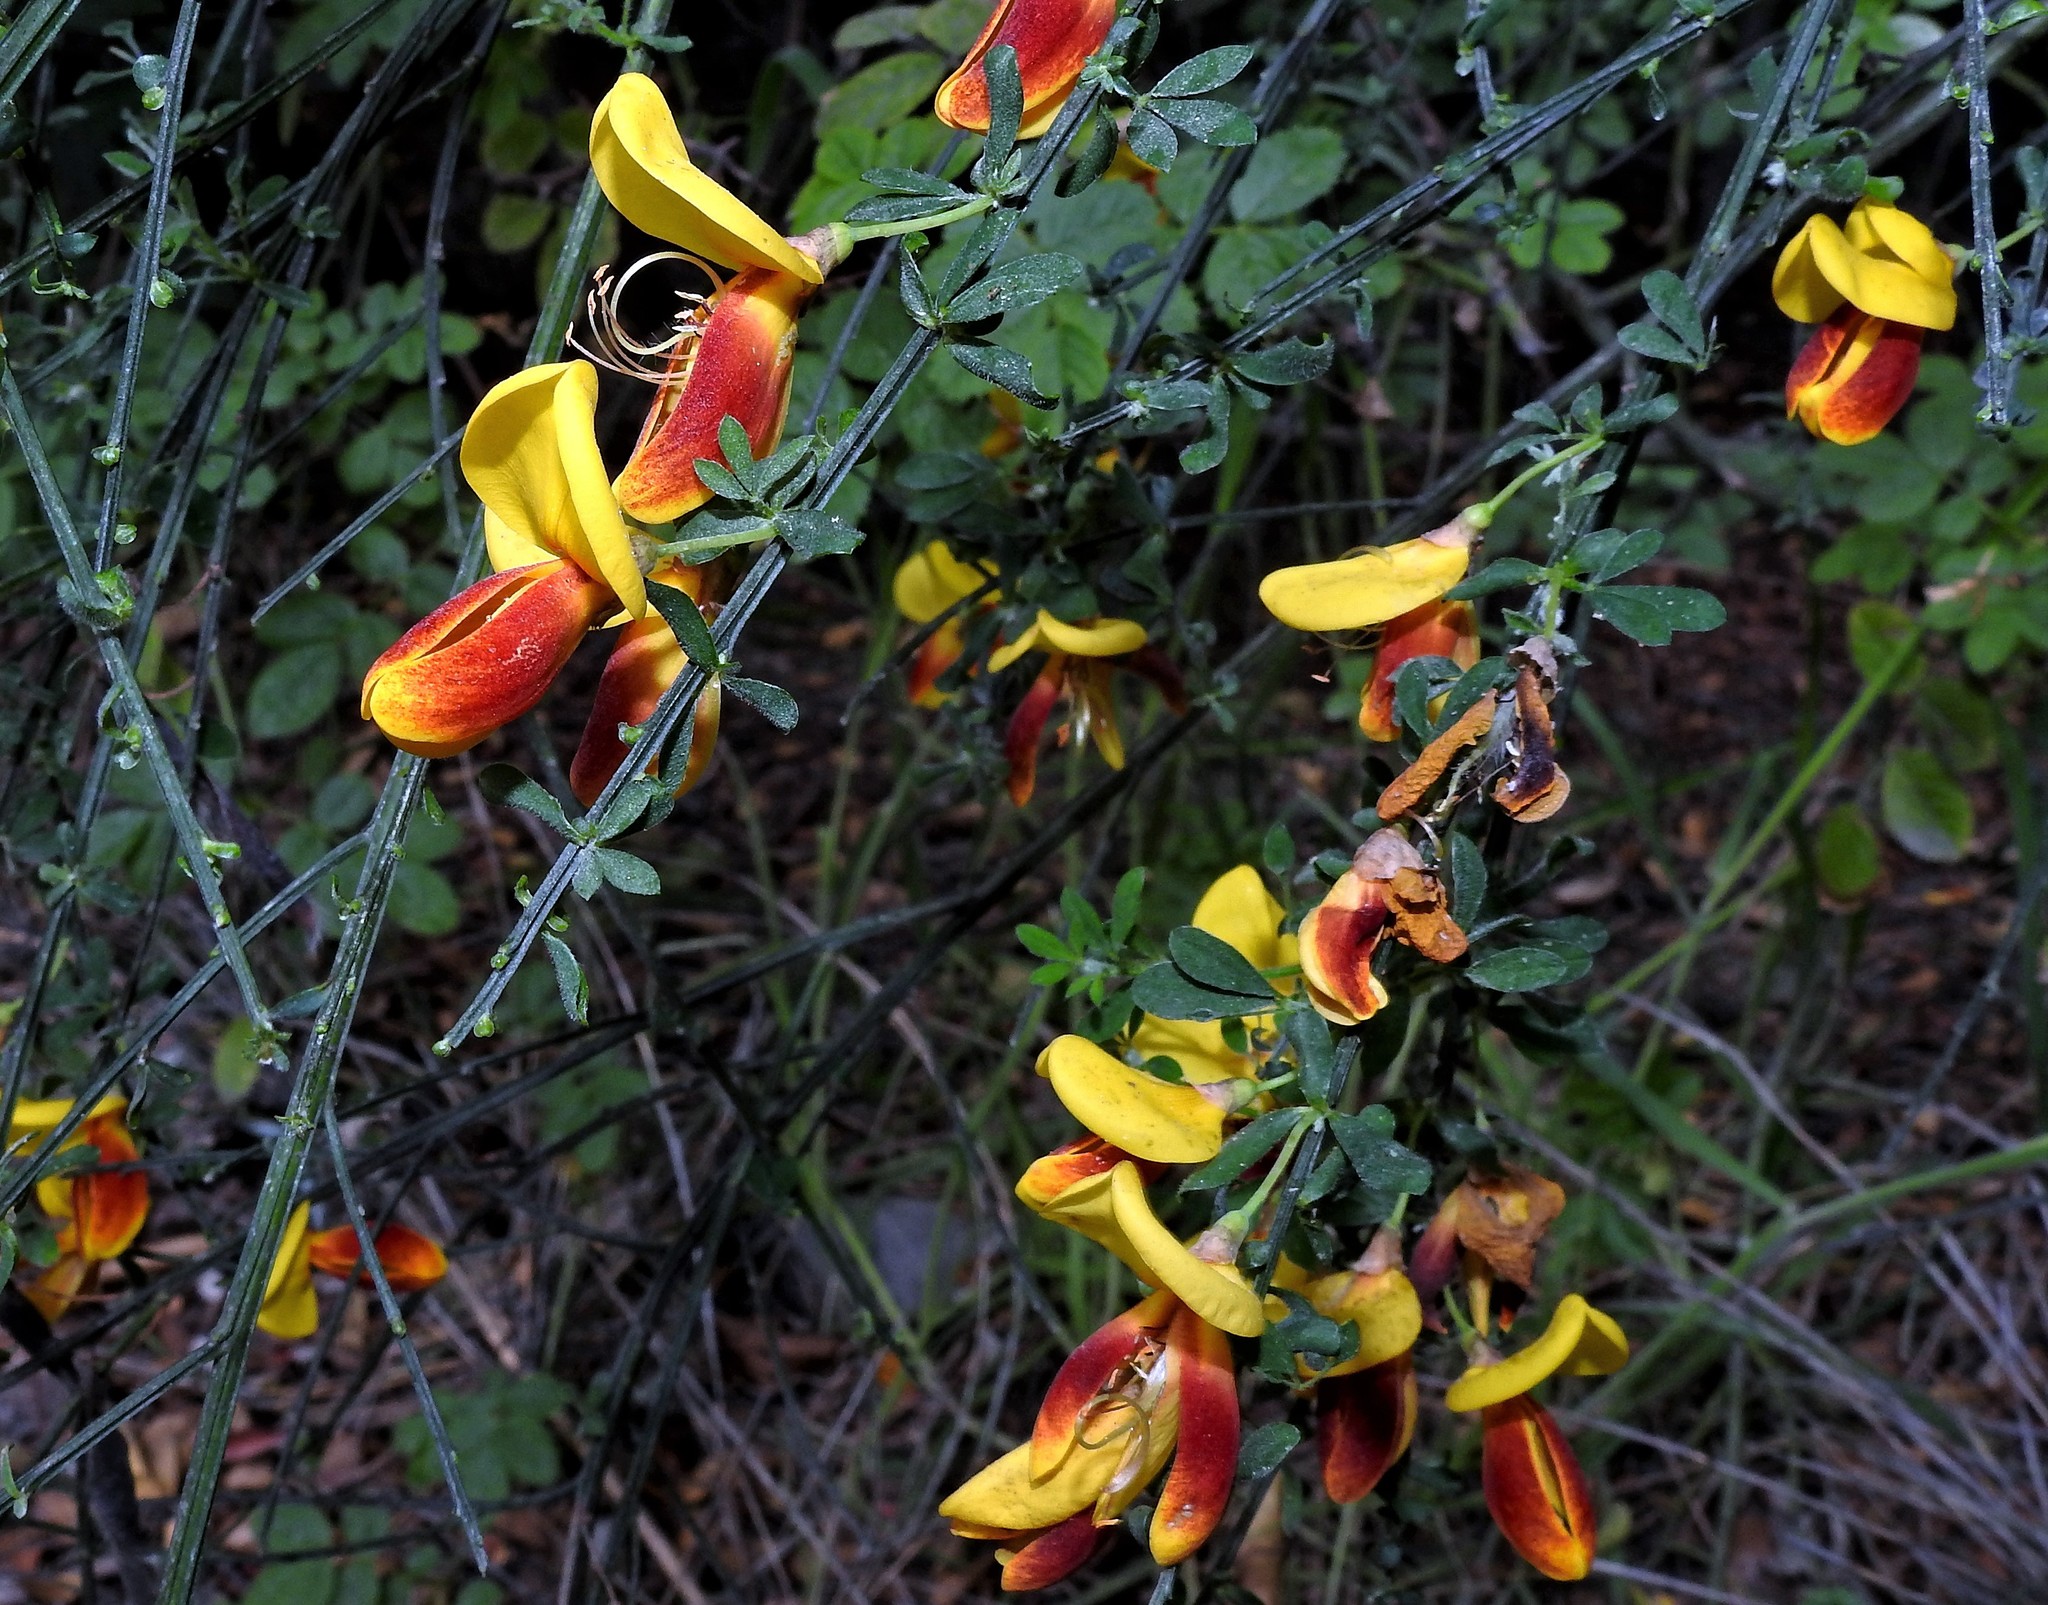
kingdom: Plantae
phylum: Tracheophyta
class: Magnoliopsida
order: Fabales
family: Fabaceae
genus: Cytisus
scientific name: Cytisus scoparius
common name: Scotch broom
